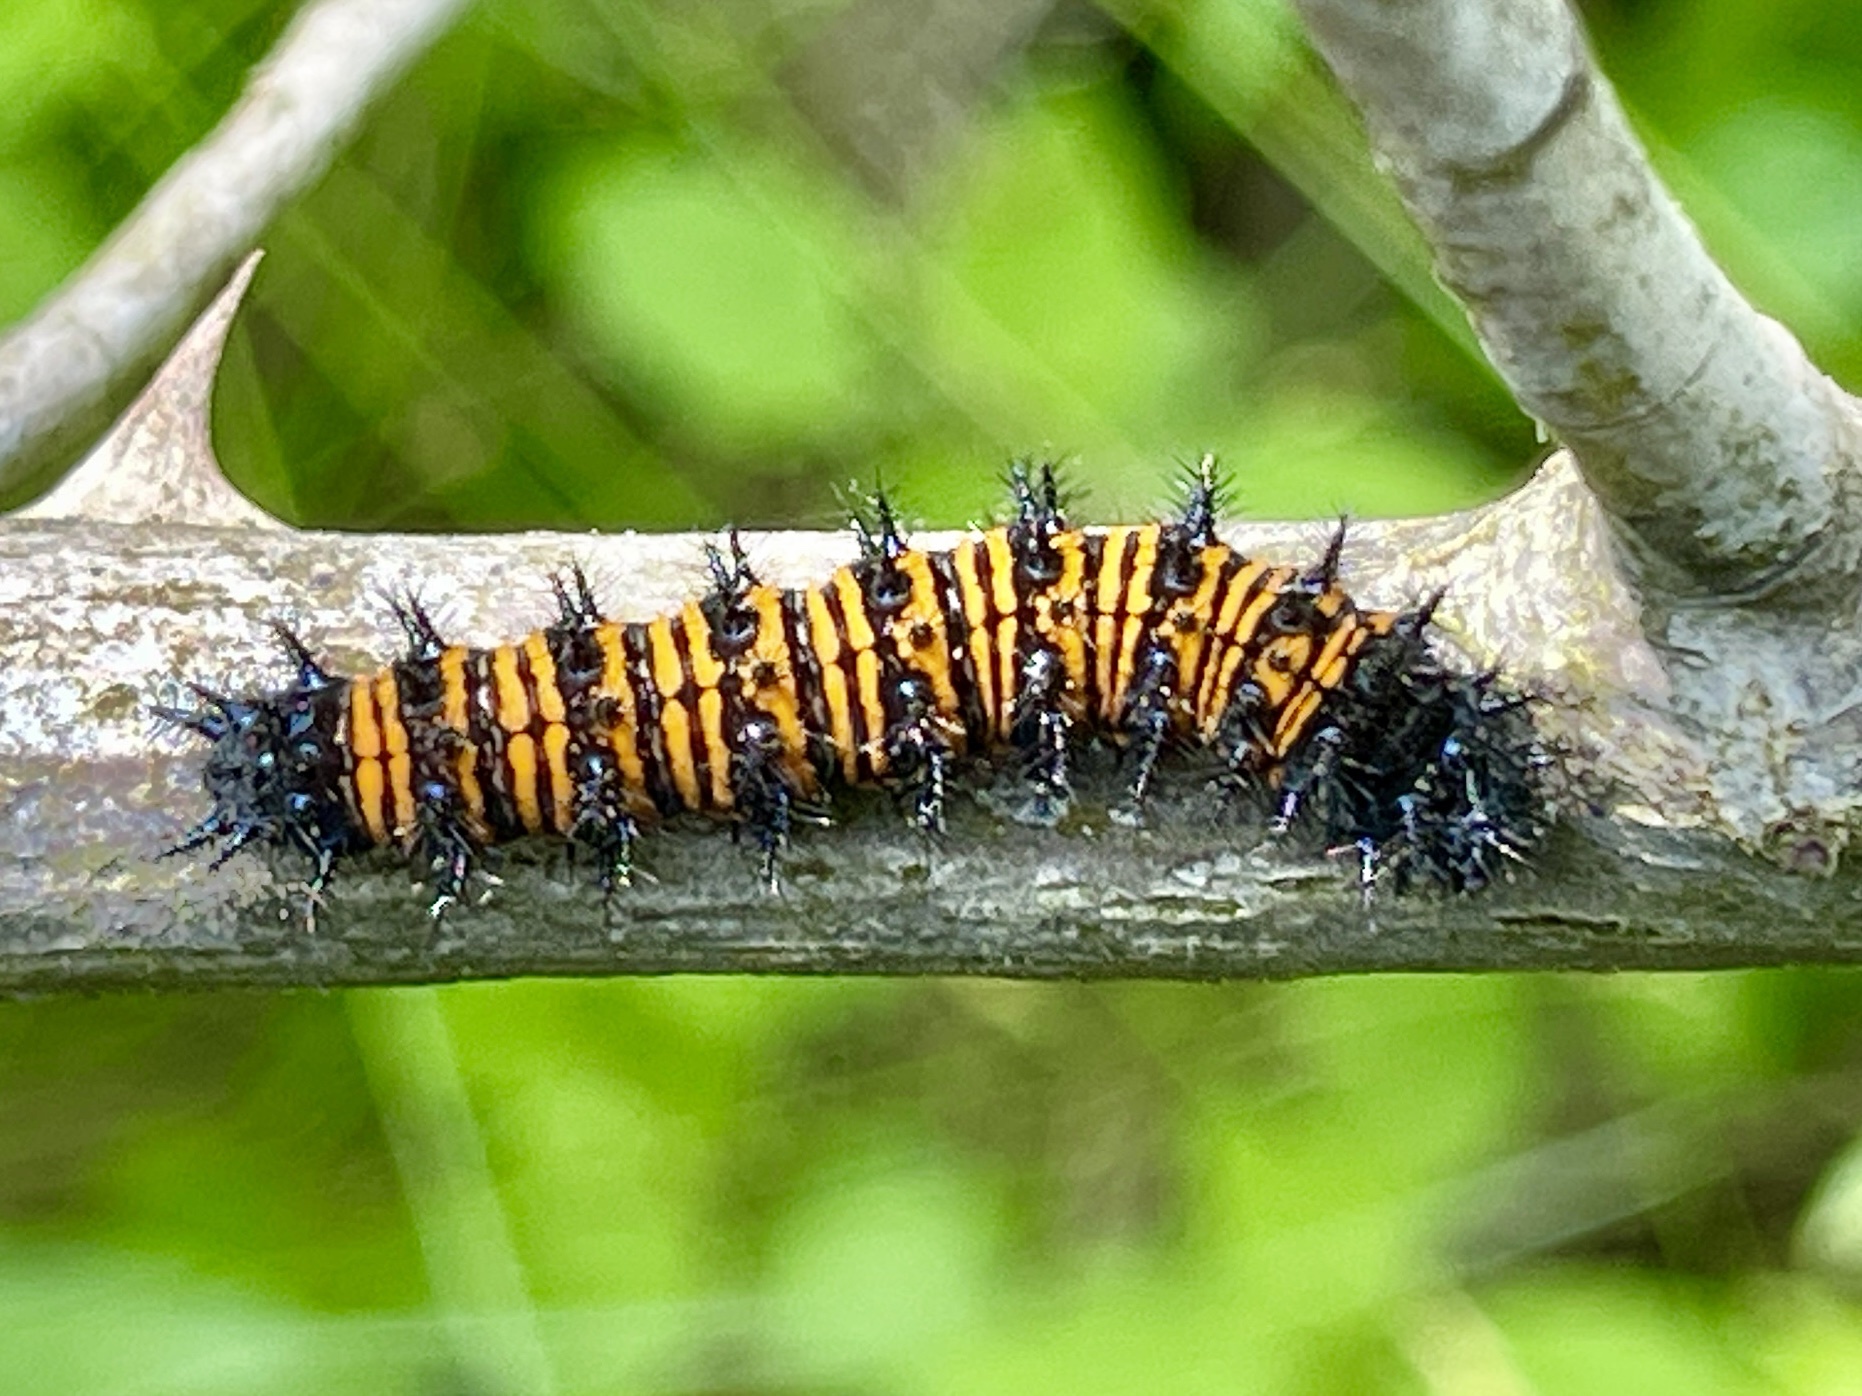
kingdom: Animalia
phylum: Arthropoda
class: Insecta
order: Lepidoptera
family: Nymphalidae
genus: Euphydryas
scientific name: Euphydryas phaeton
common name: Baltimore checkerspot
